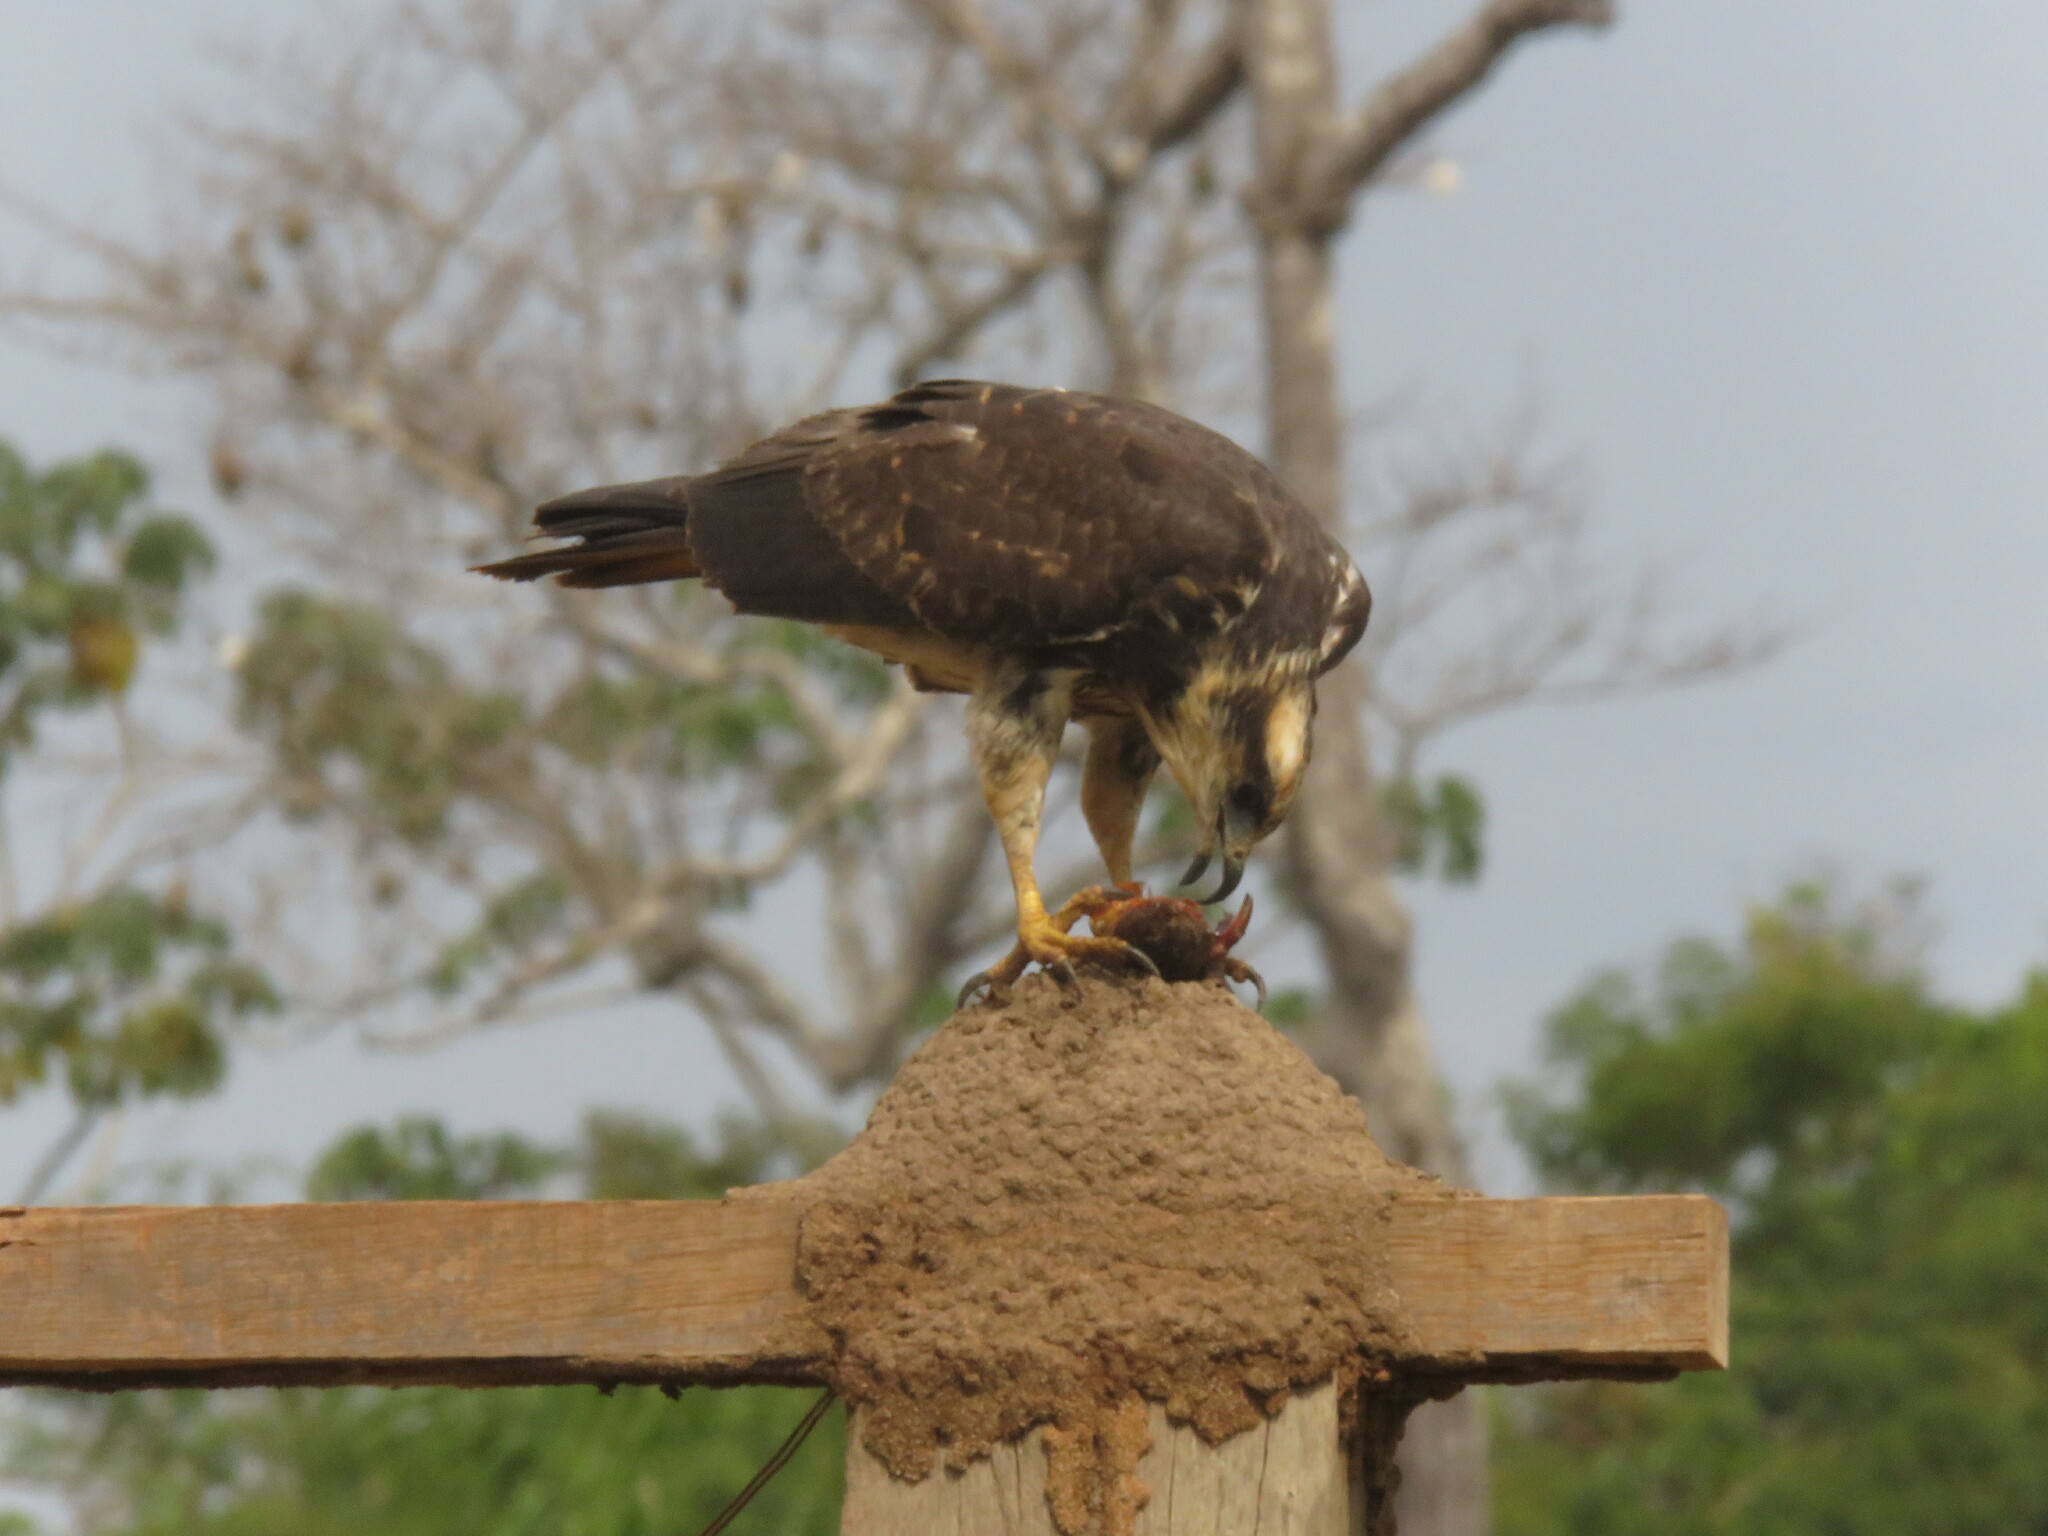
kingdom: Animalia
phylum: Chordata
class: Aves
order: Accipitriformes
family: Accipitridae
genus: Rostrhamus
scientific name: Rostrhamus sociabilis
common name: Snail kite
